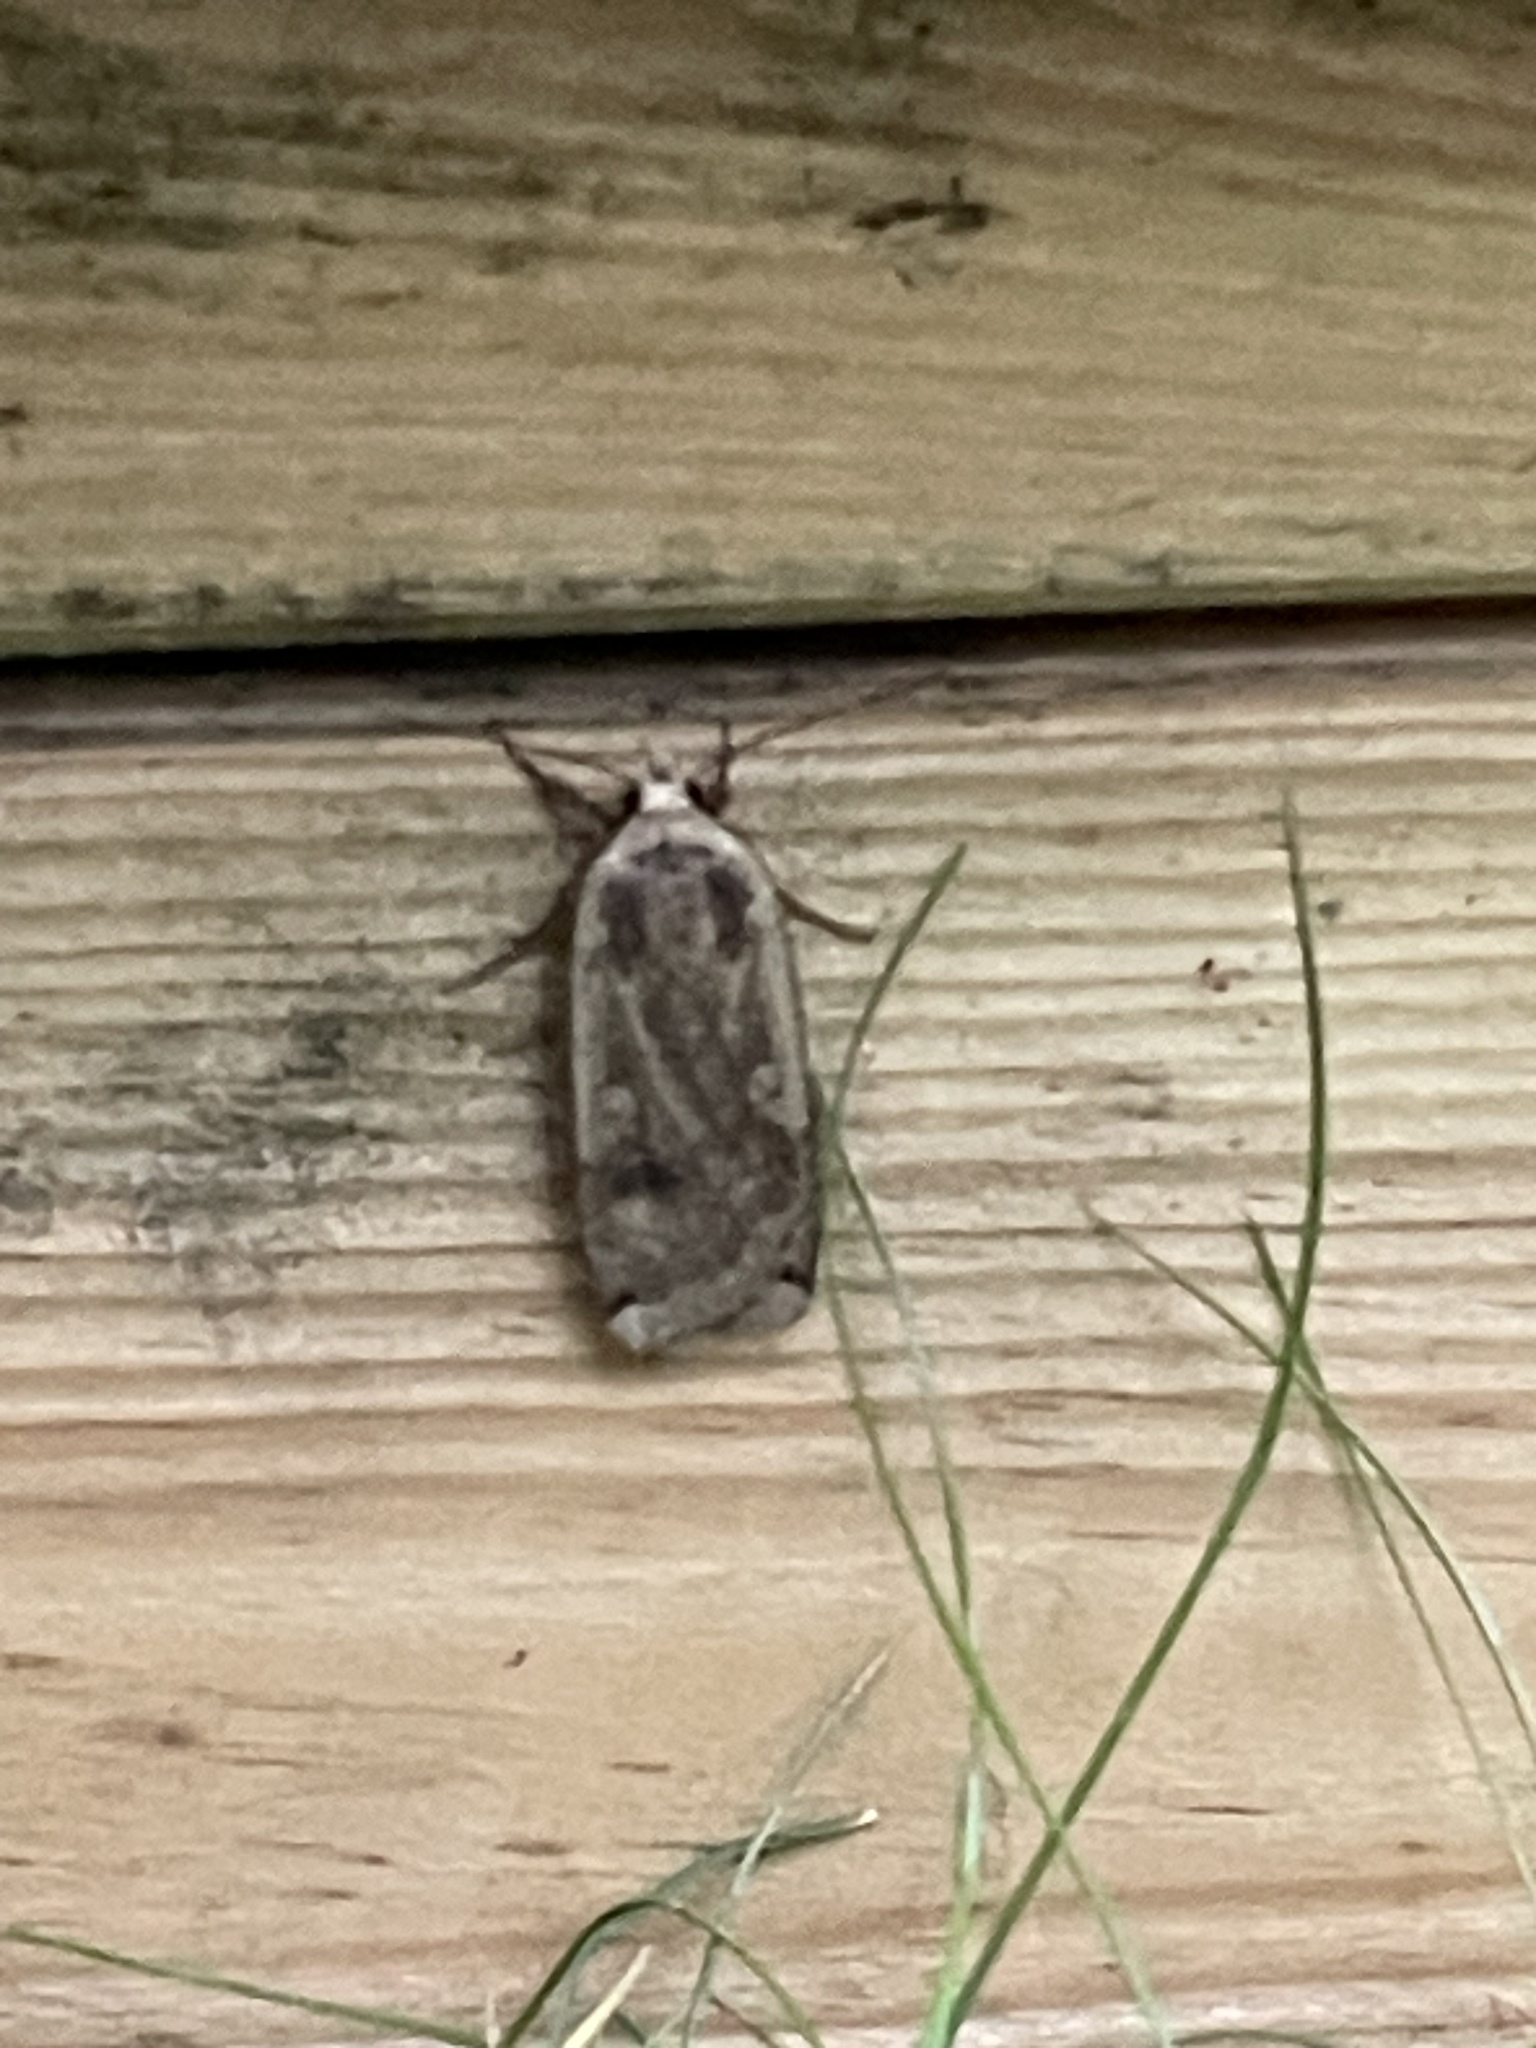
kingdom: Animalia
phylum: Arthropoda
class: Insecta
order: Lepidoptera
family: Noctuidae
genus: Noctua
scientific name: Noctua pronuba
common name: Large yellow underwing
